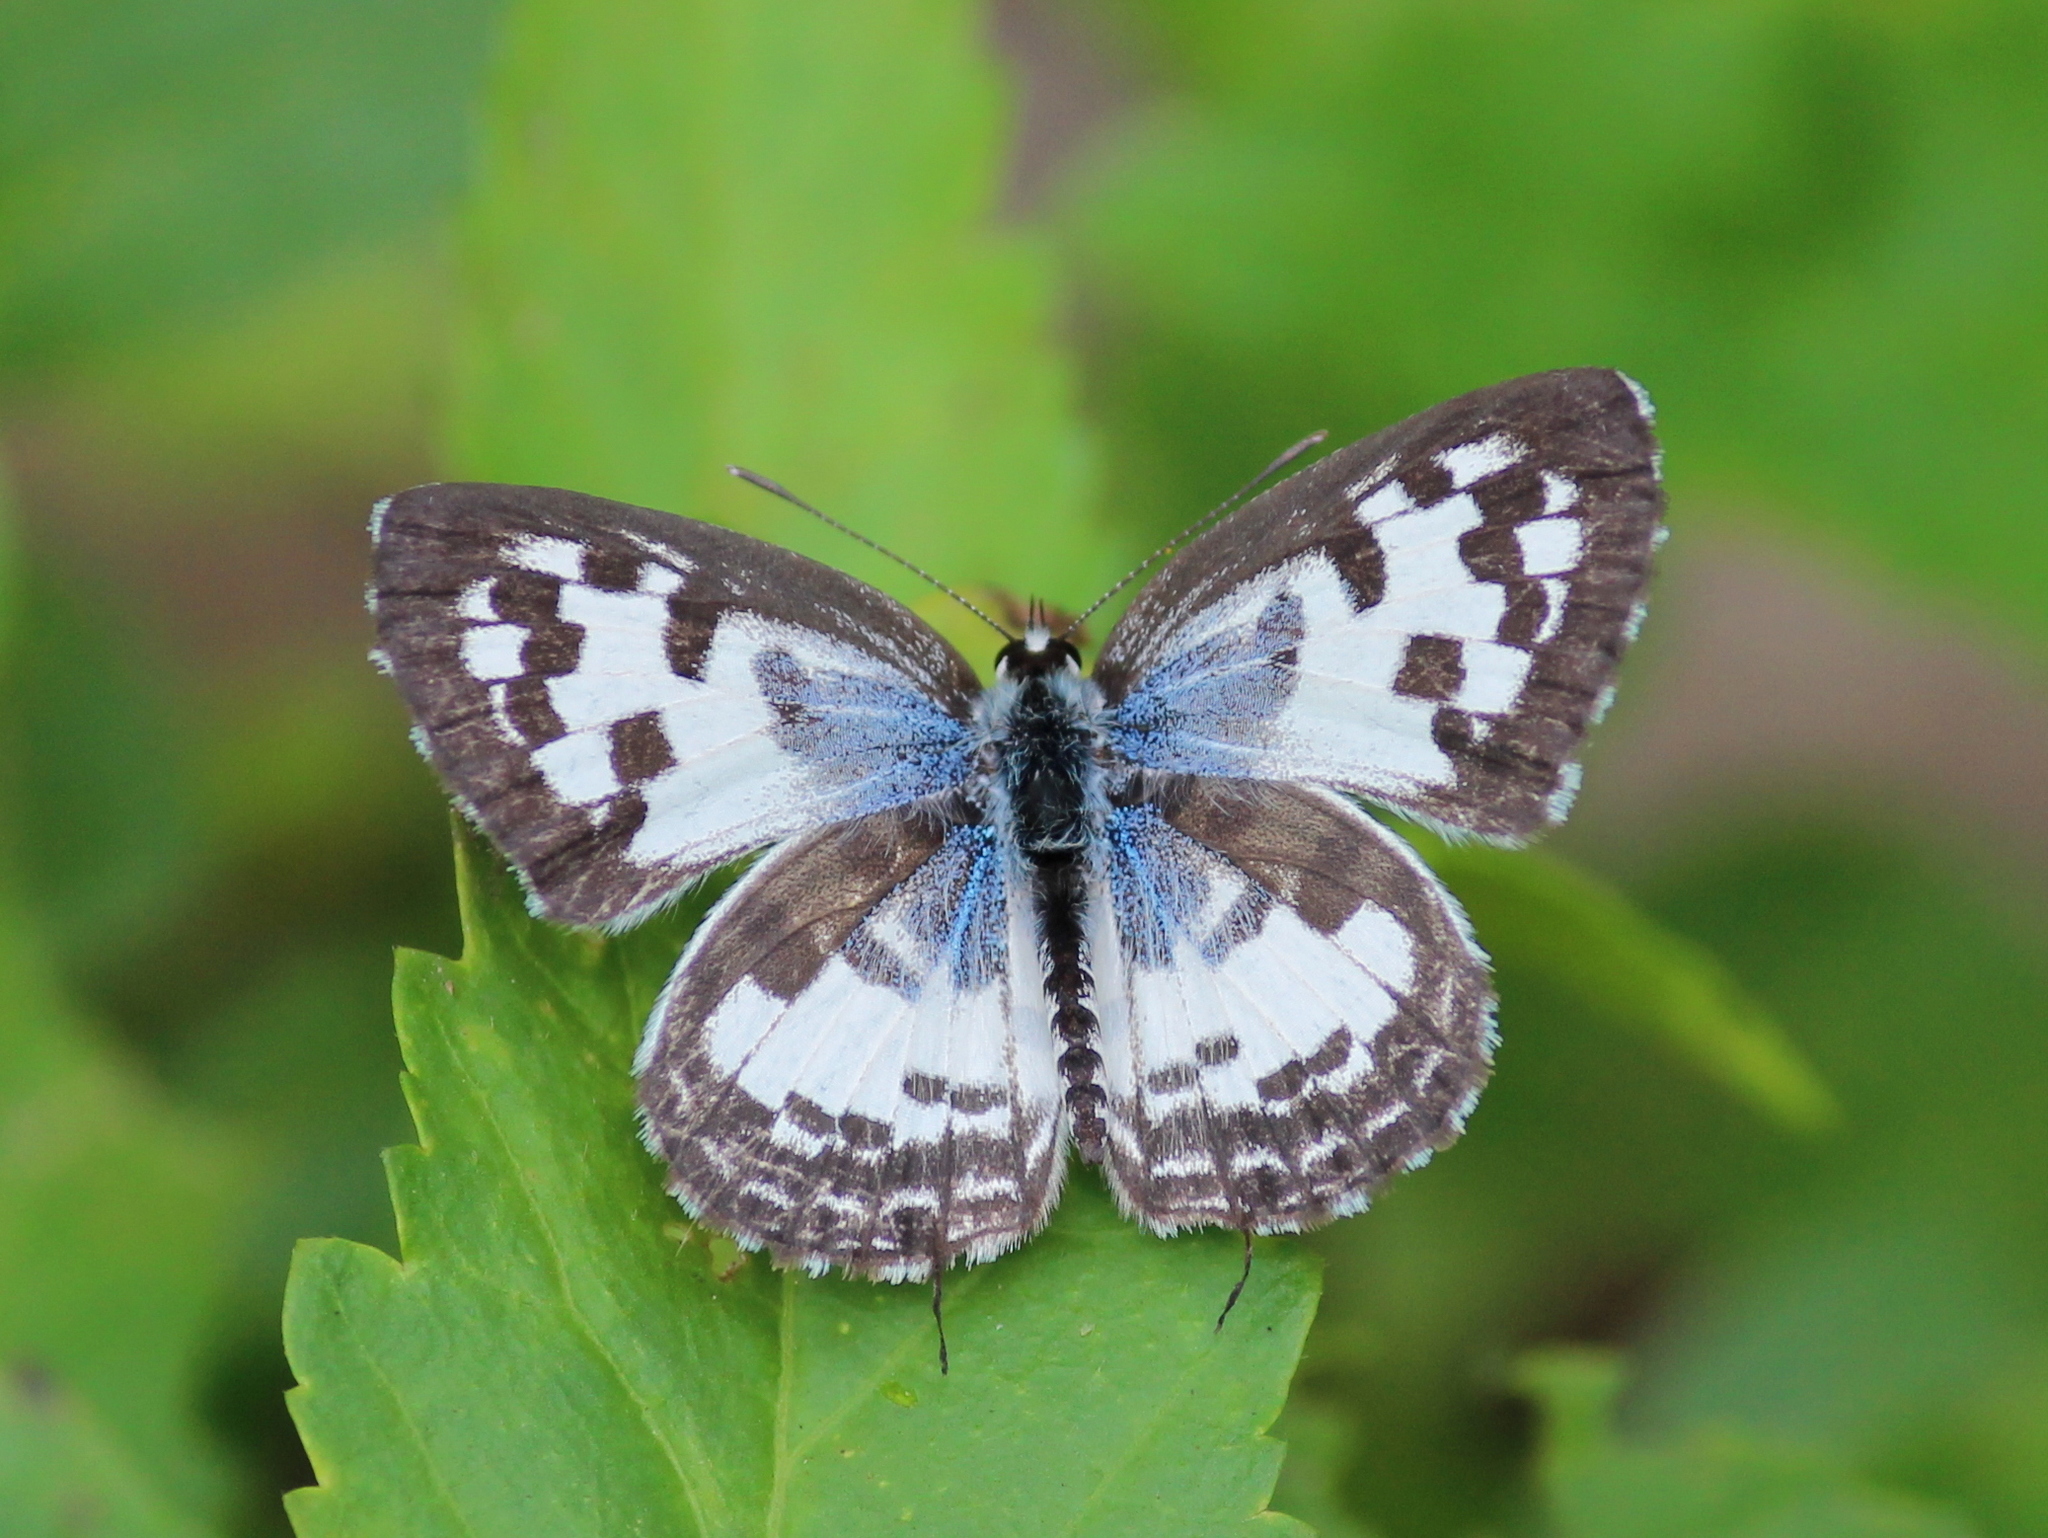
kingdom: Animalia
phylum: Arthropoda
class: Insecta
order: Lepidoptera
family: Lycaenidae
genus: Castalius
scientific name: Castalius rosimon
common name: Common pierrot
